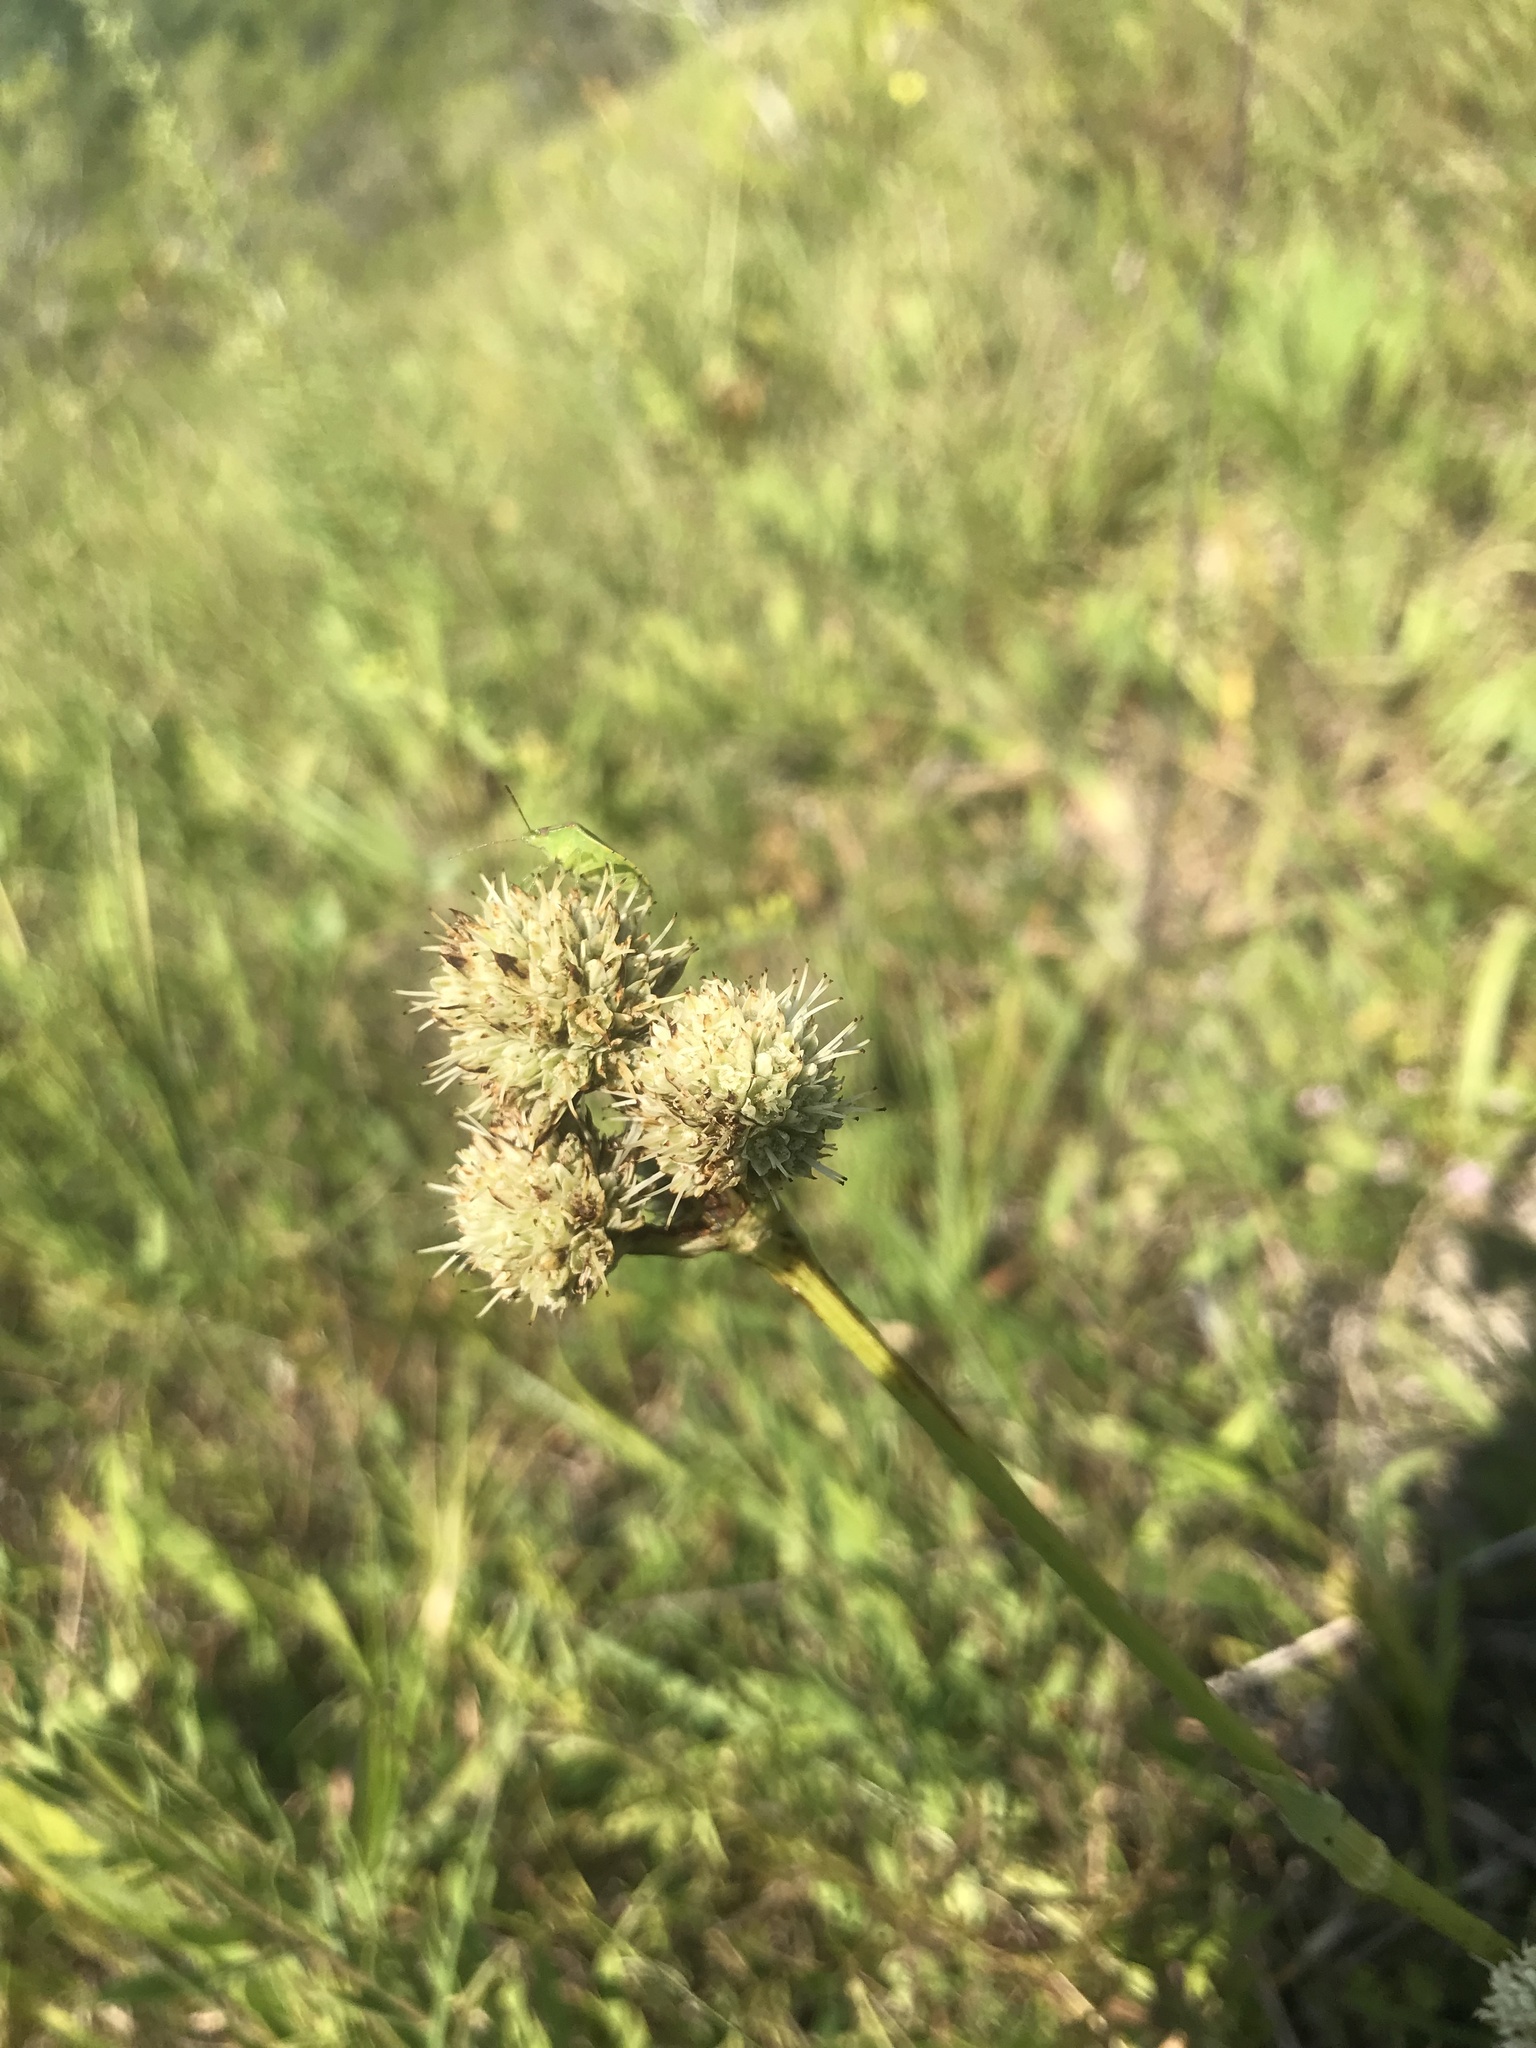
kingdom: Plantae
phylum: Tracheophyta
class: Magnoliopsida
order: Apiales
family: Apiaceae
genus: Eryngium
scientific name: Eryngium yuccifolium
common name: Button eryngo
